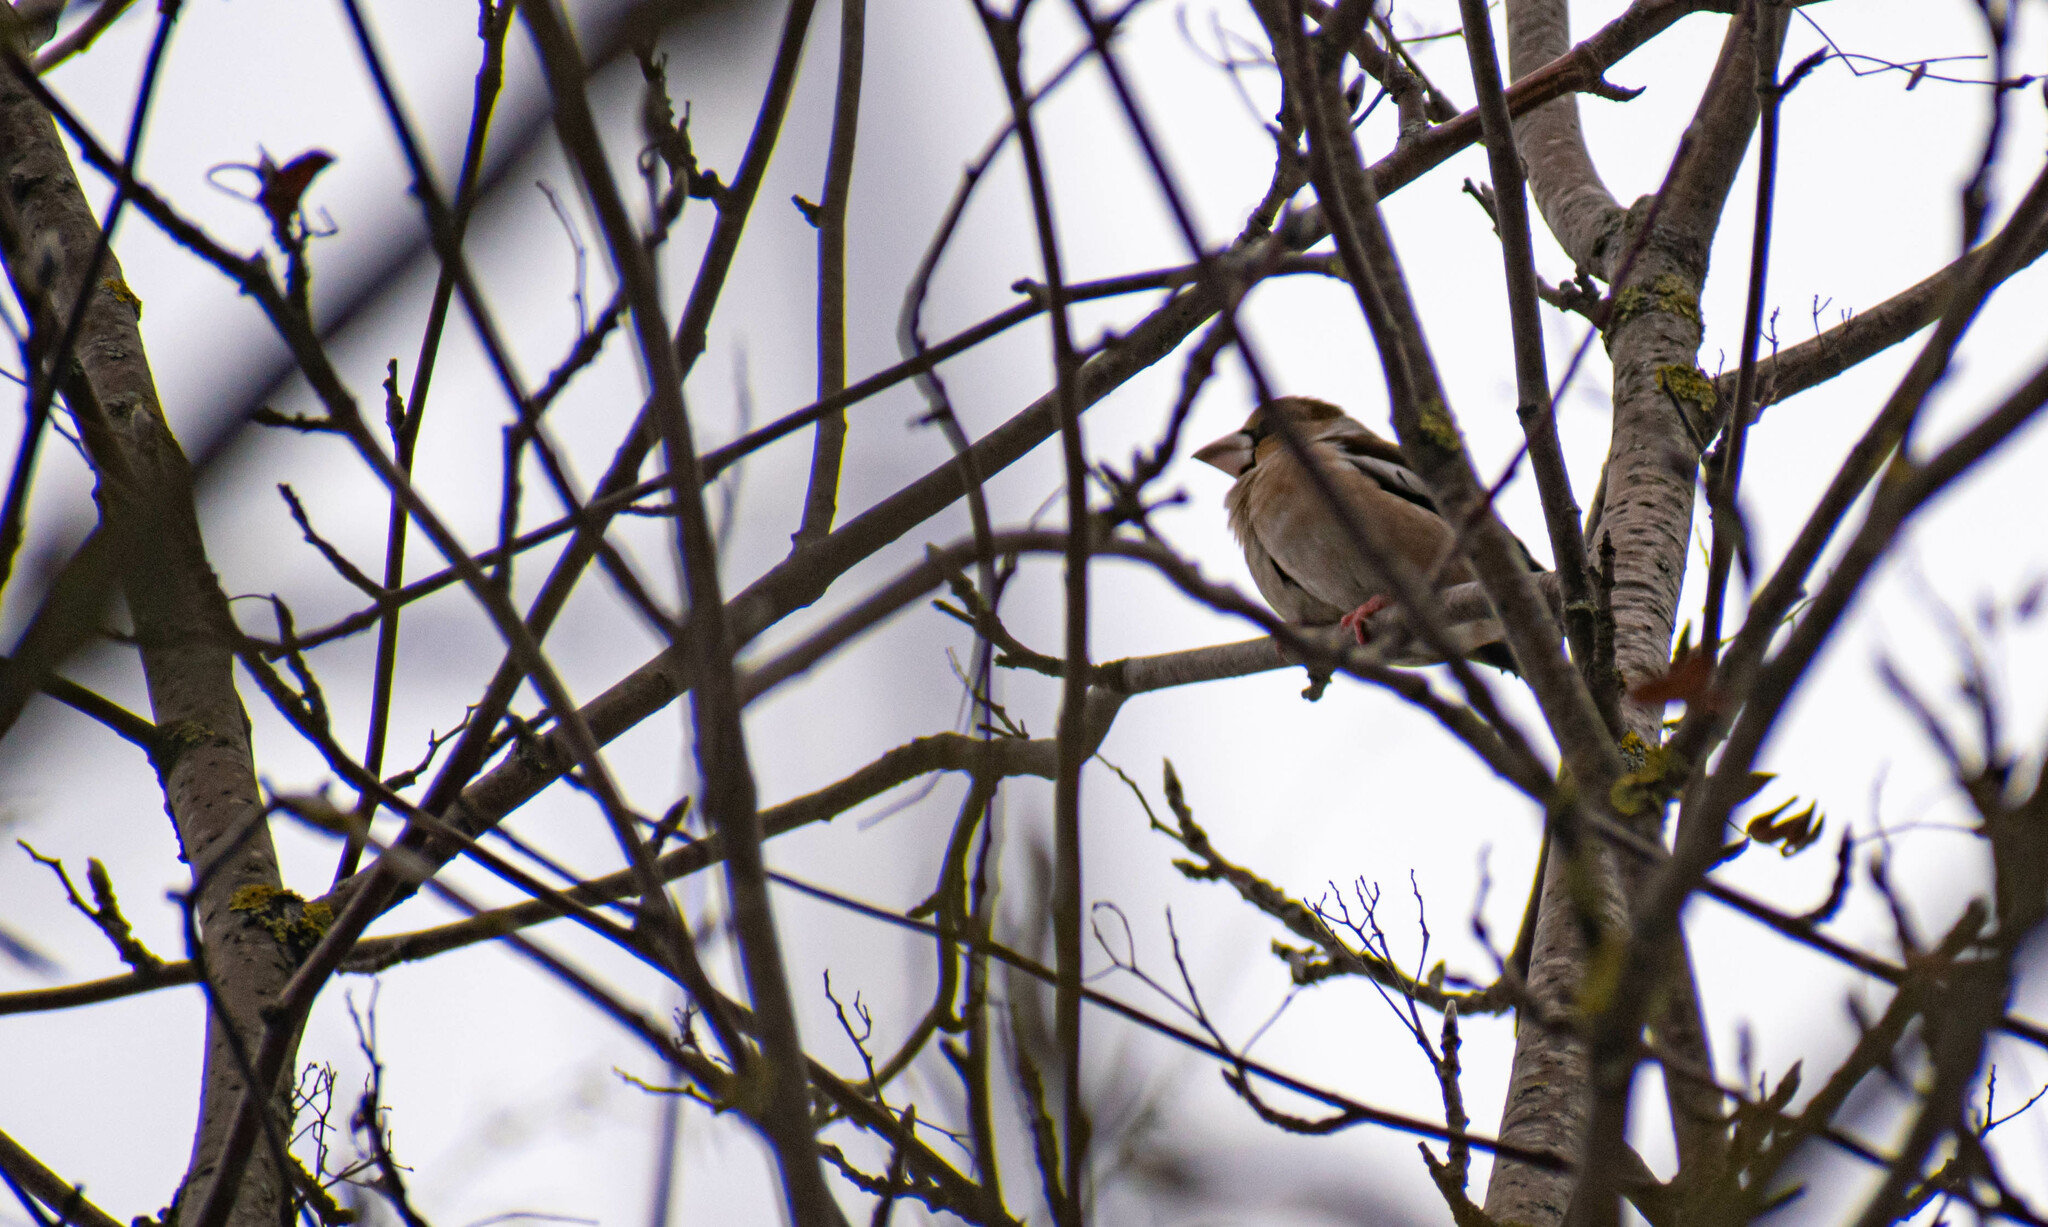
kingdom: Animalia
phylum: Chordata
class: Aves
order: Passeriformes
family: Fringillidae
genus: Coccothraustes
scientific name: Coccothraustes coccothraustes
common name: Hawfinch
